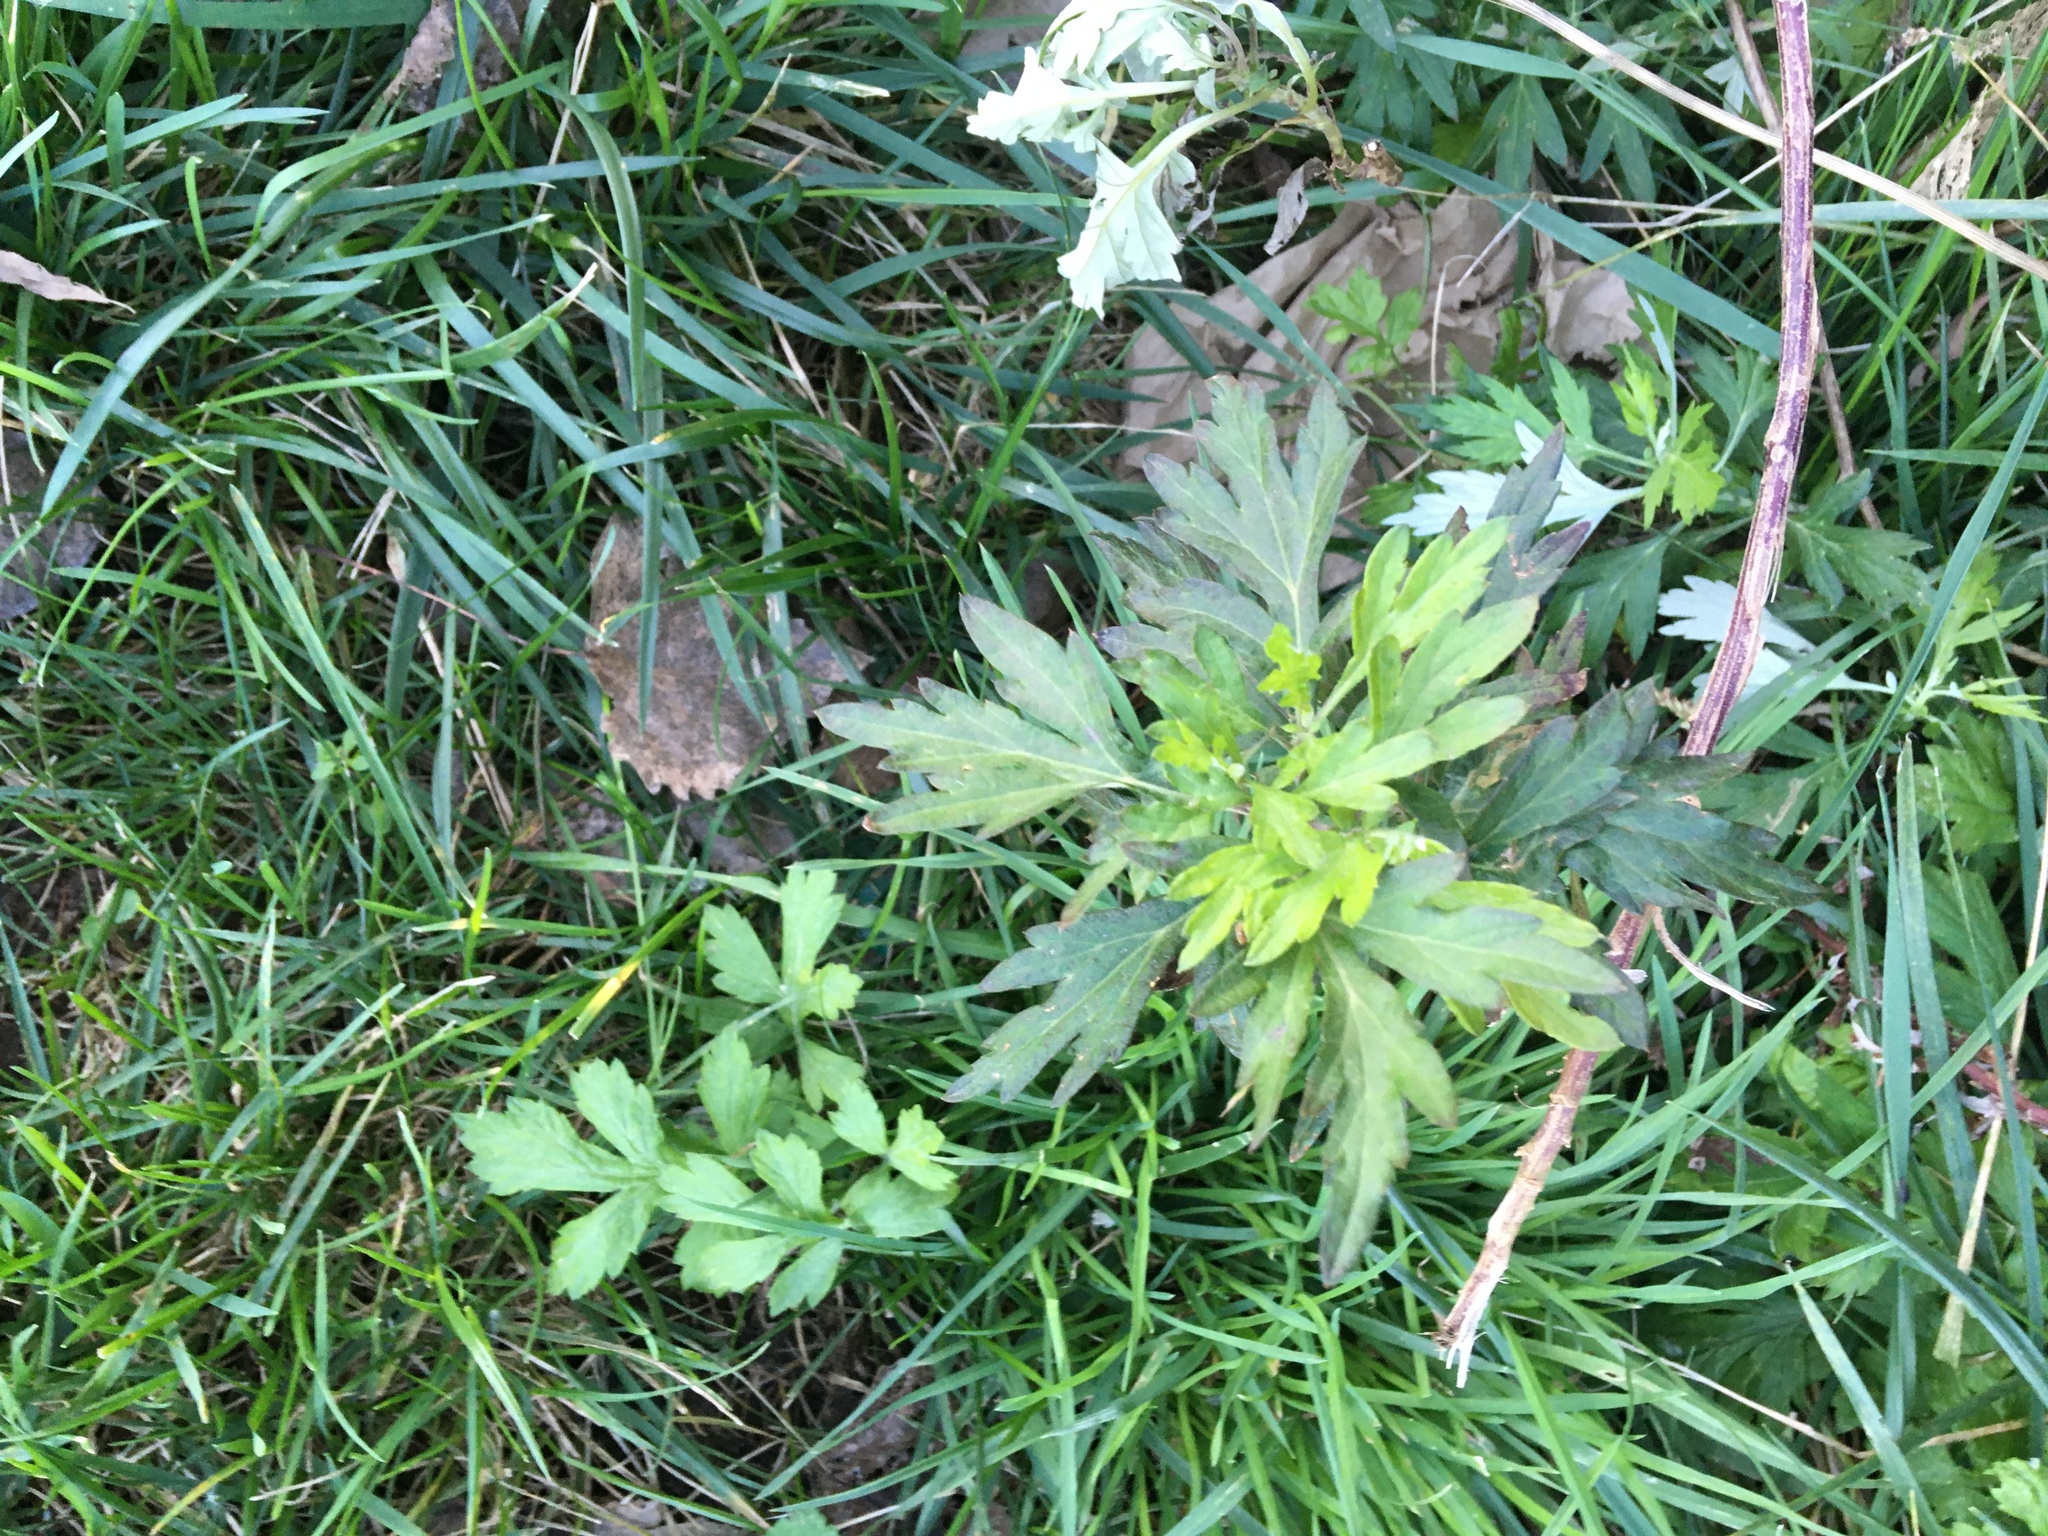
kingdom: Plantae
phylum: Tracheophyta
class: Magnoliopsida
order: Asterales
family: Asteraceae
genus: Artemisia
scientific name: Artemisia vulgaris
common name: Mugwort
